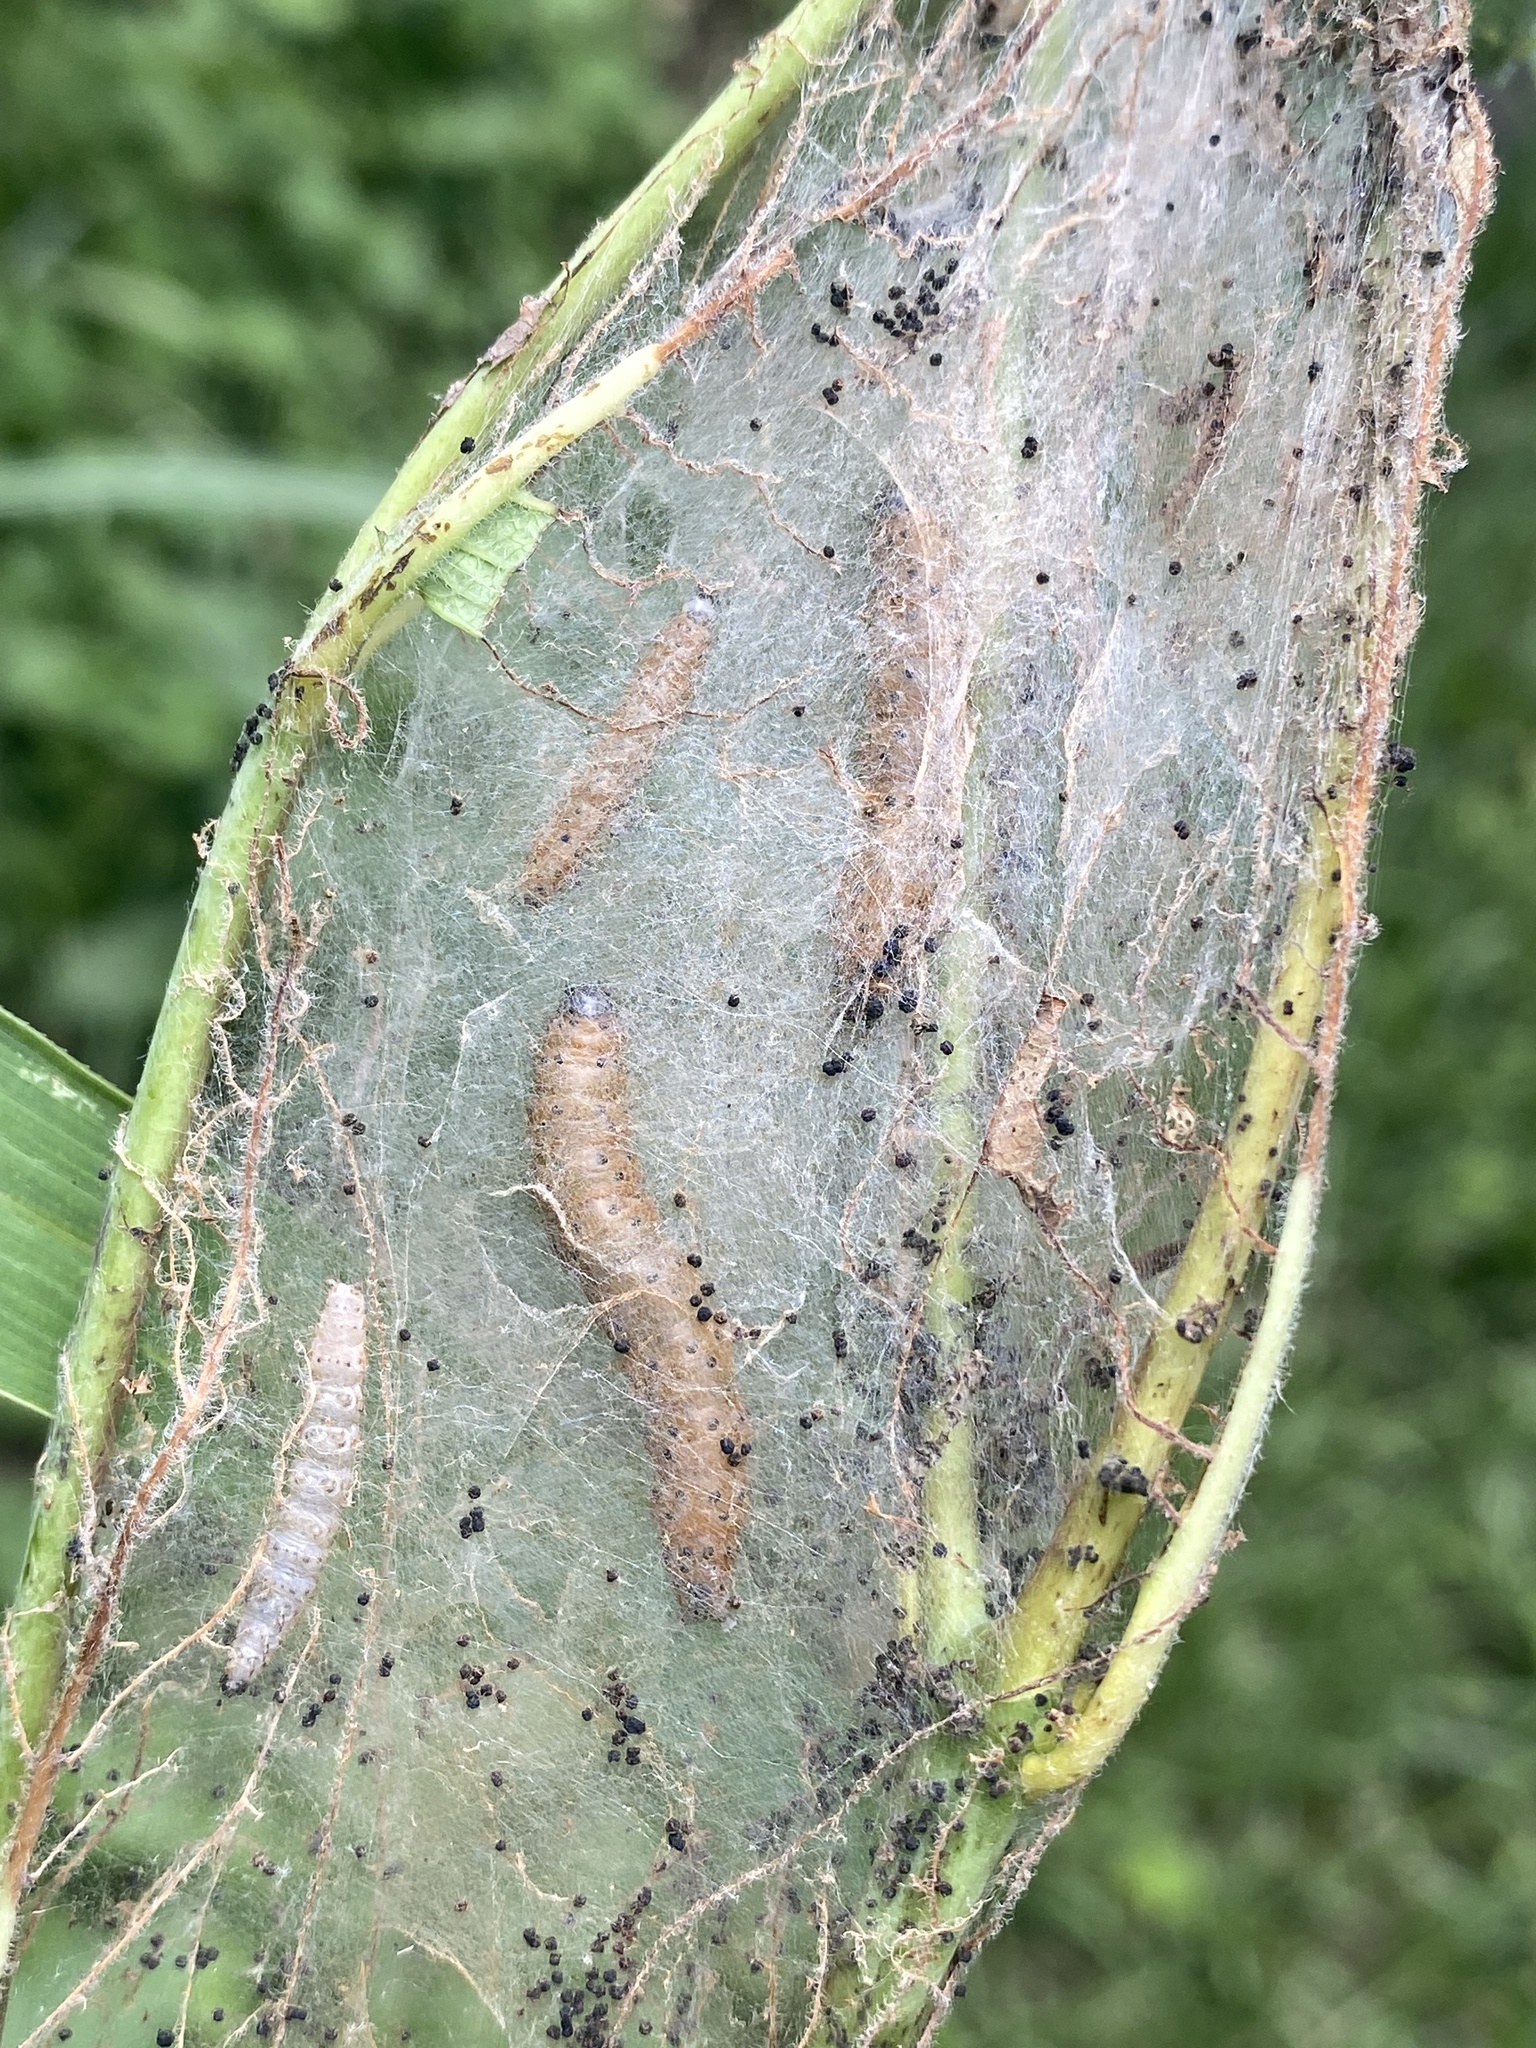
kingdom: Animalia
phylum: Arthropoda
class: Insecta
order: Lepidoptera
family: Crambidae
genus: Saucrobotys
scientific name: Saucrobotys futilalis
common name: Dogbane saucrobotys moth
